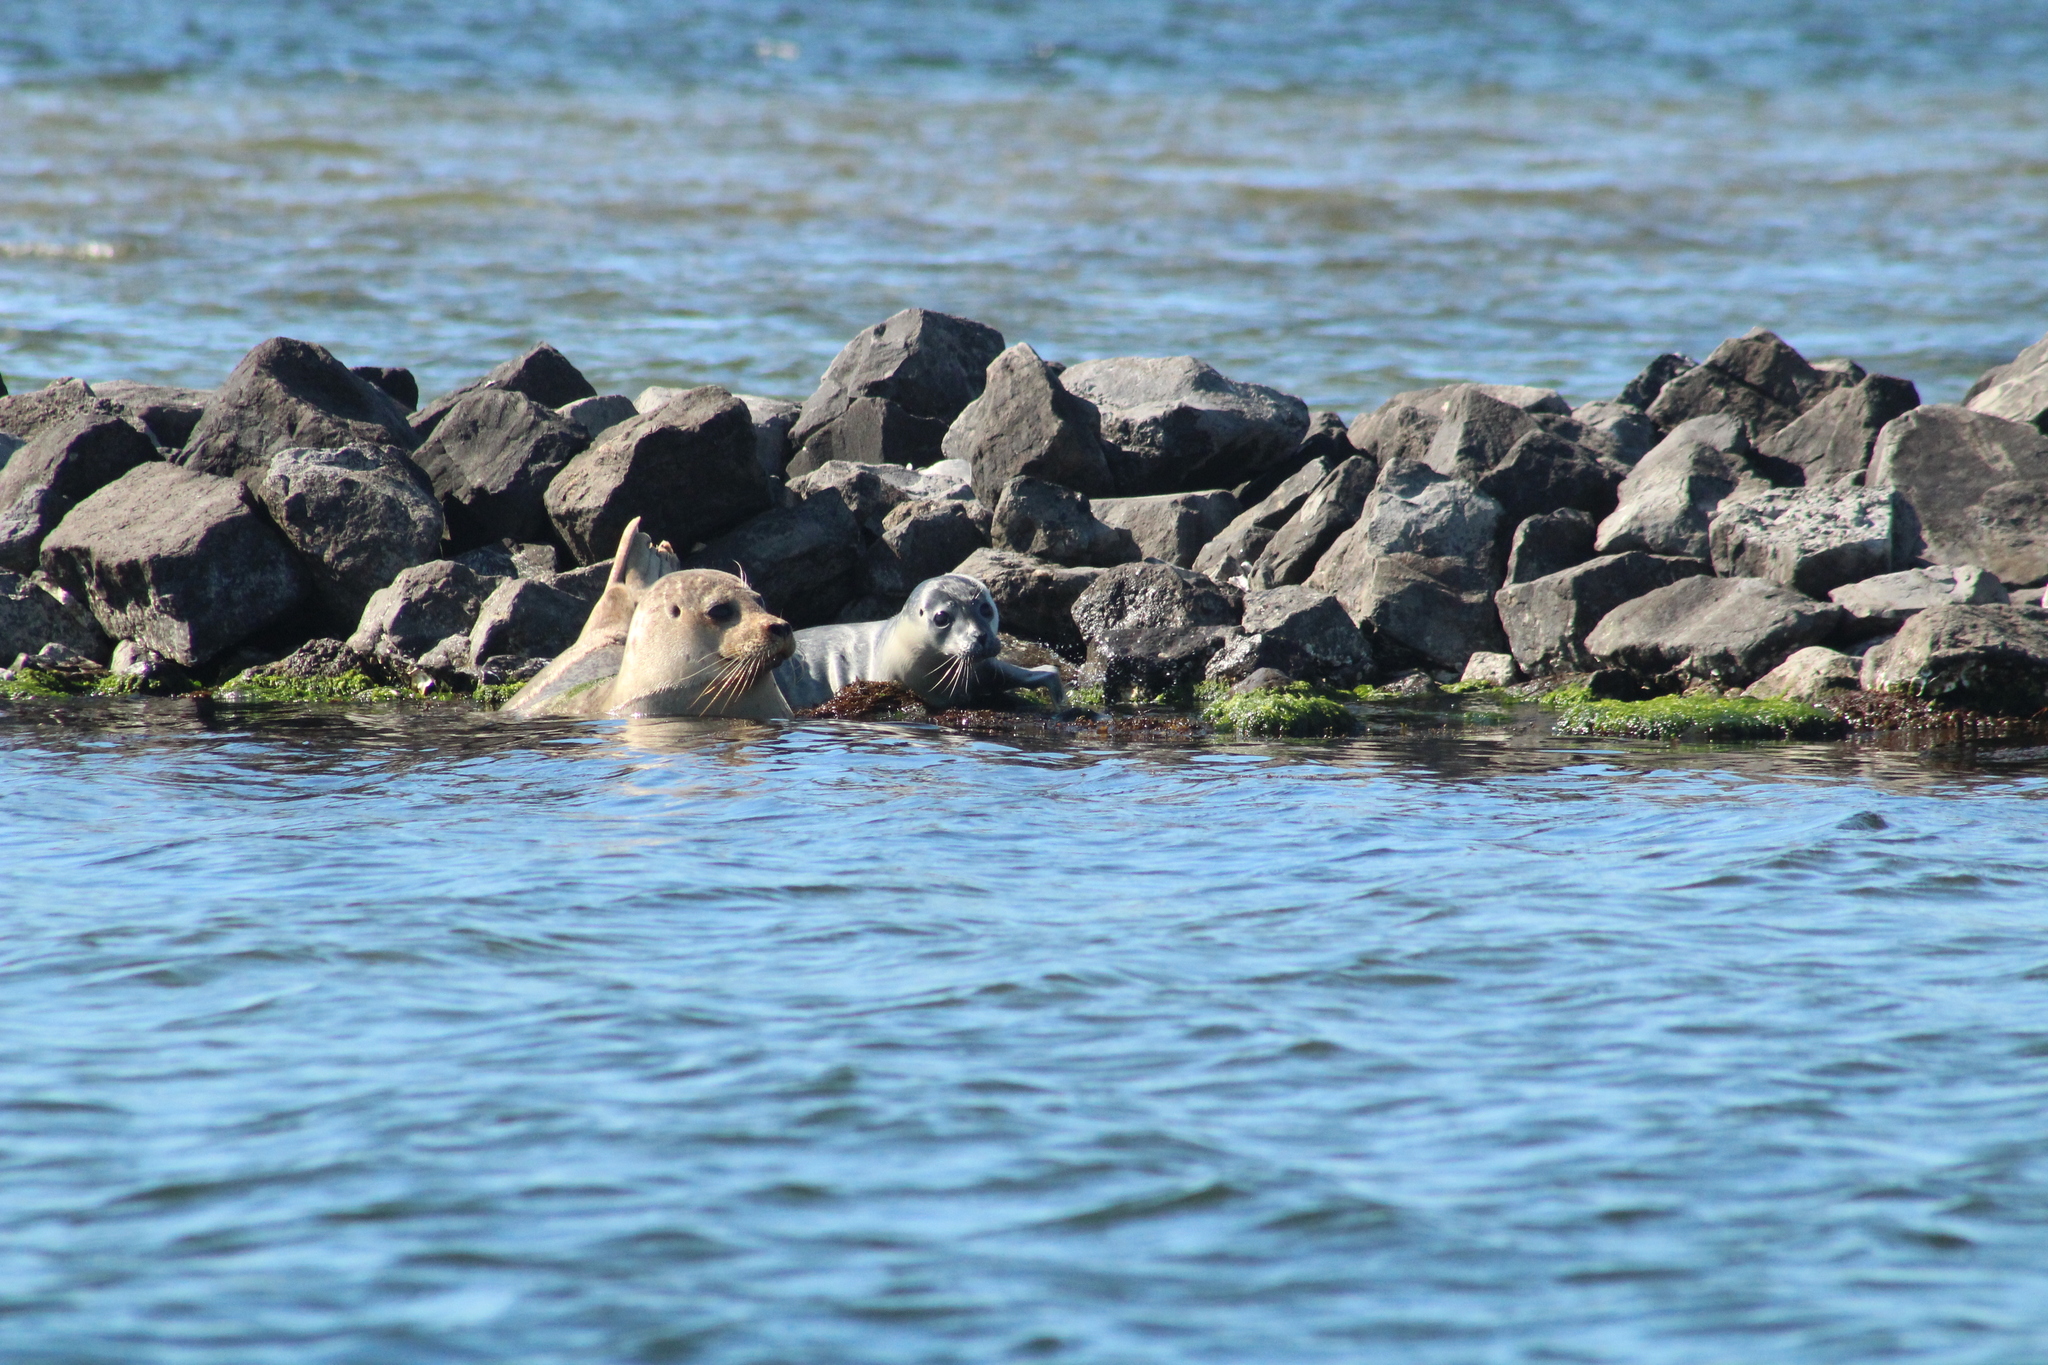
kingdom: Animalia
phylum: Chordata
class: Mammalia
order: Carnivora
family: Phocidae
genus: Phoca
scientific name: Phoca vitulina
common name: Harbor seal
